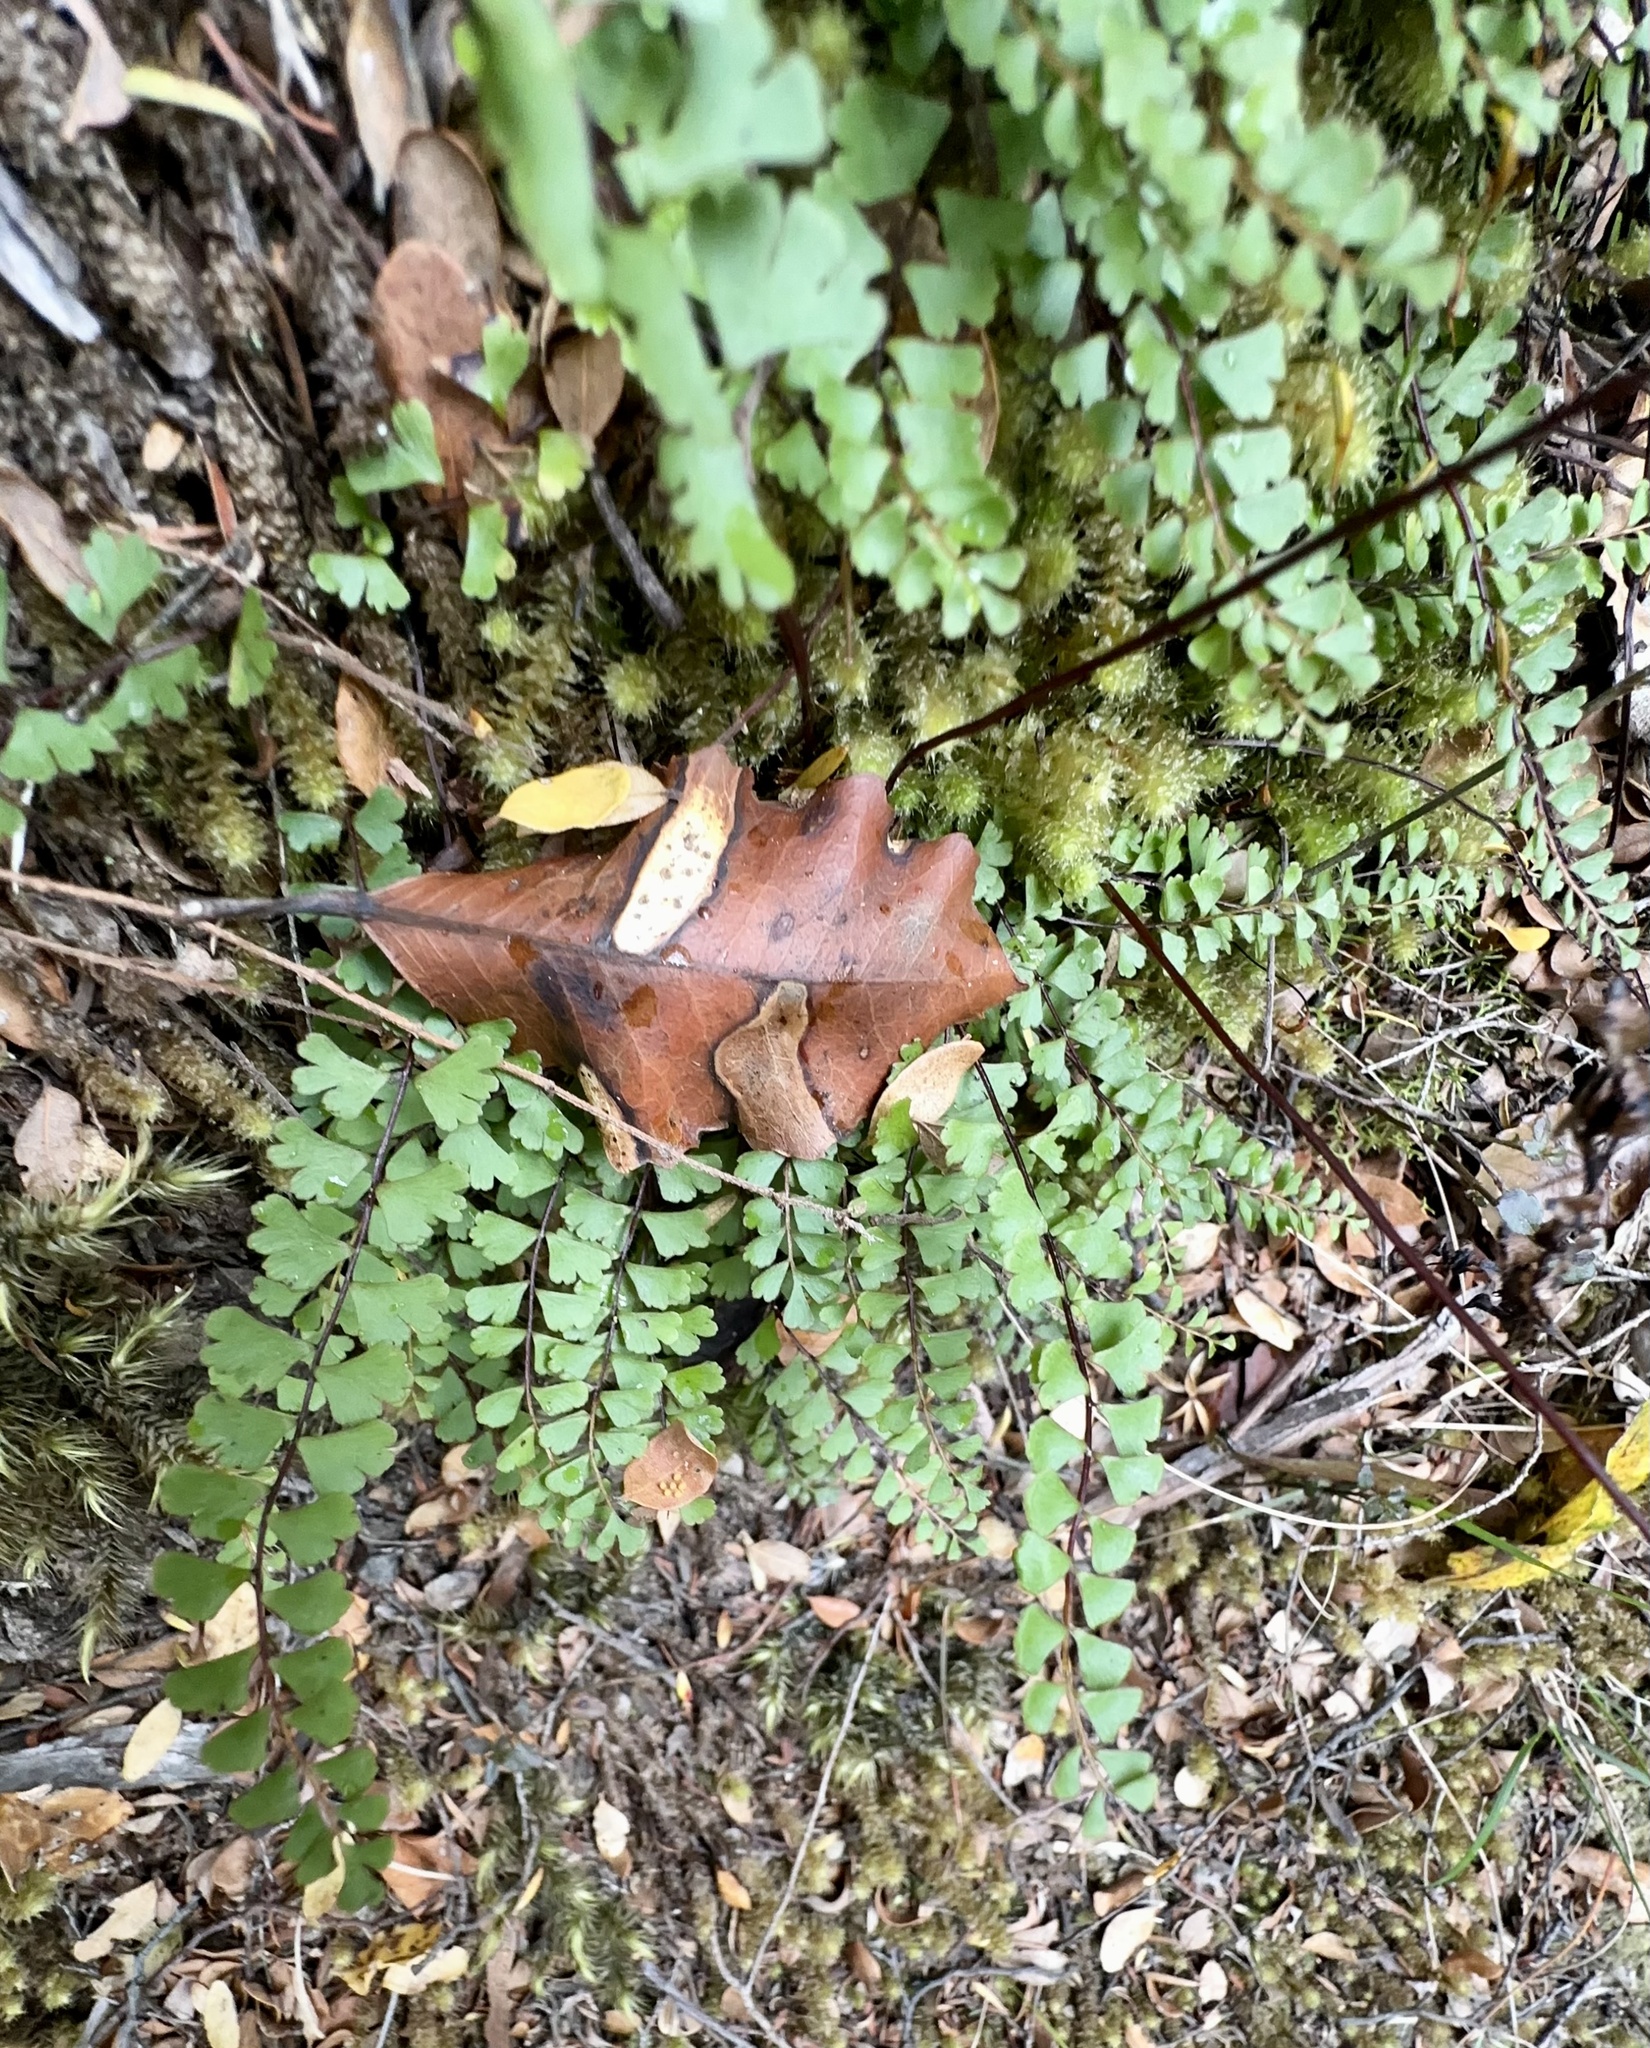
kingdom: Plantae
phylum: Tracheophyta
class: Polypodiopsida
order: Polypodiales
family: Lindsaeaceae
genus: Lindsaea
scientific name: Lindsaea linearis
